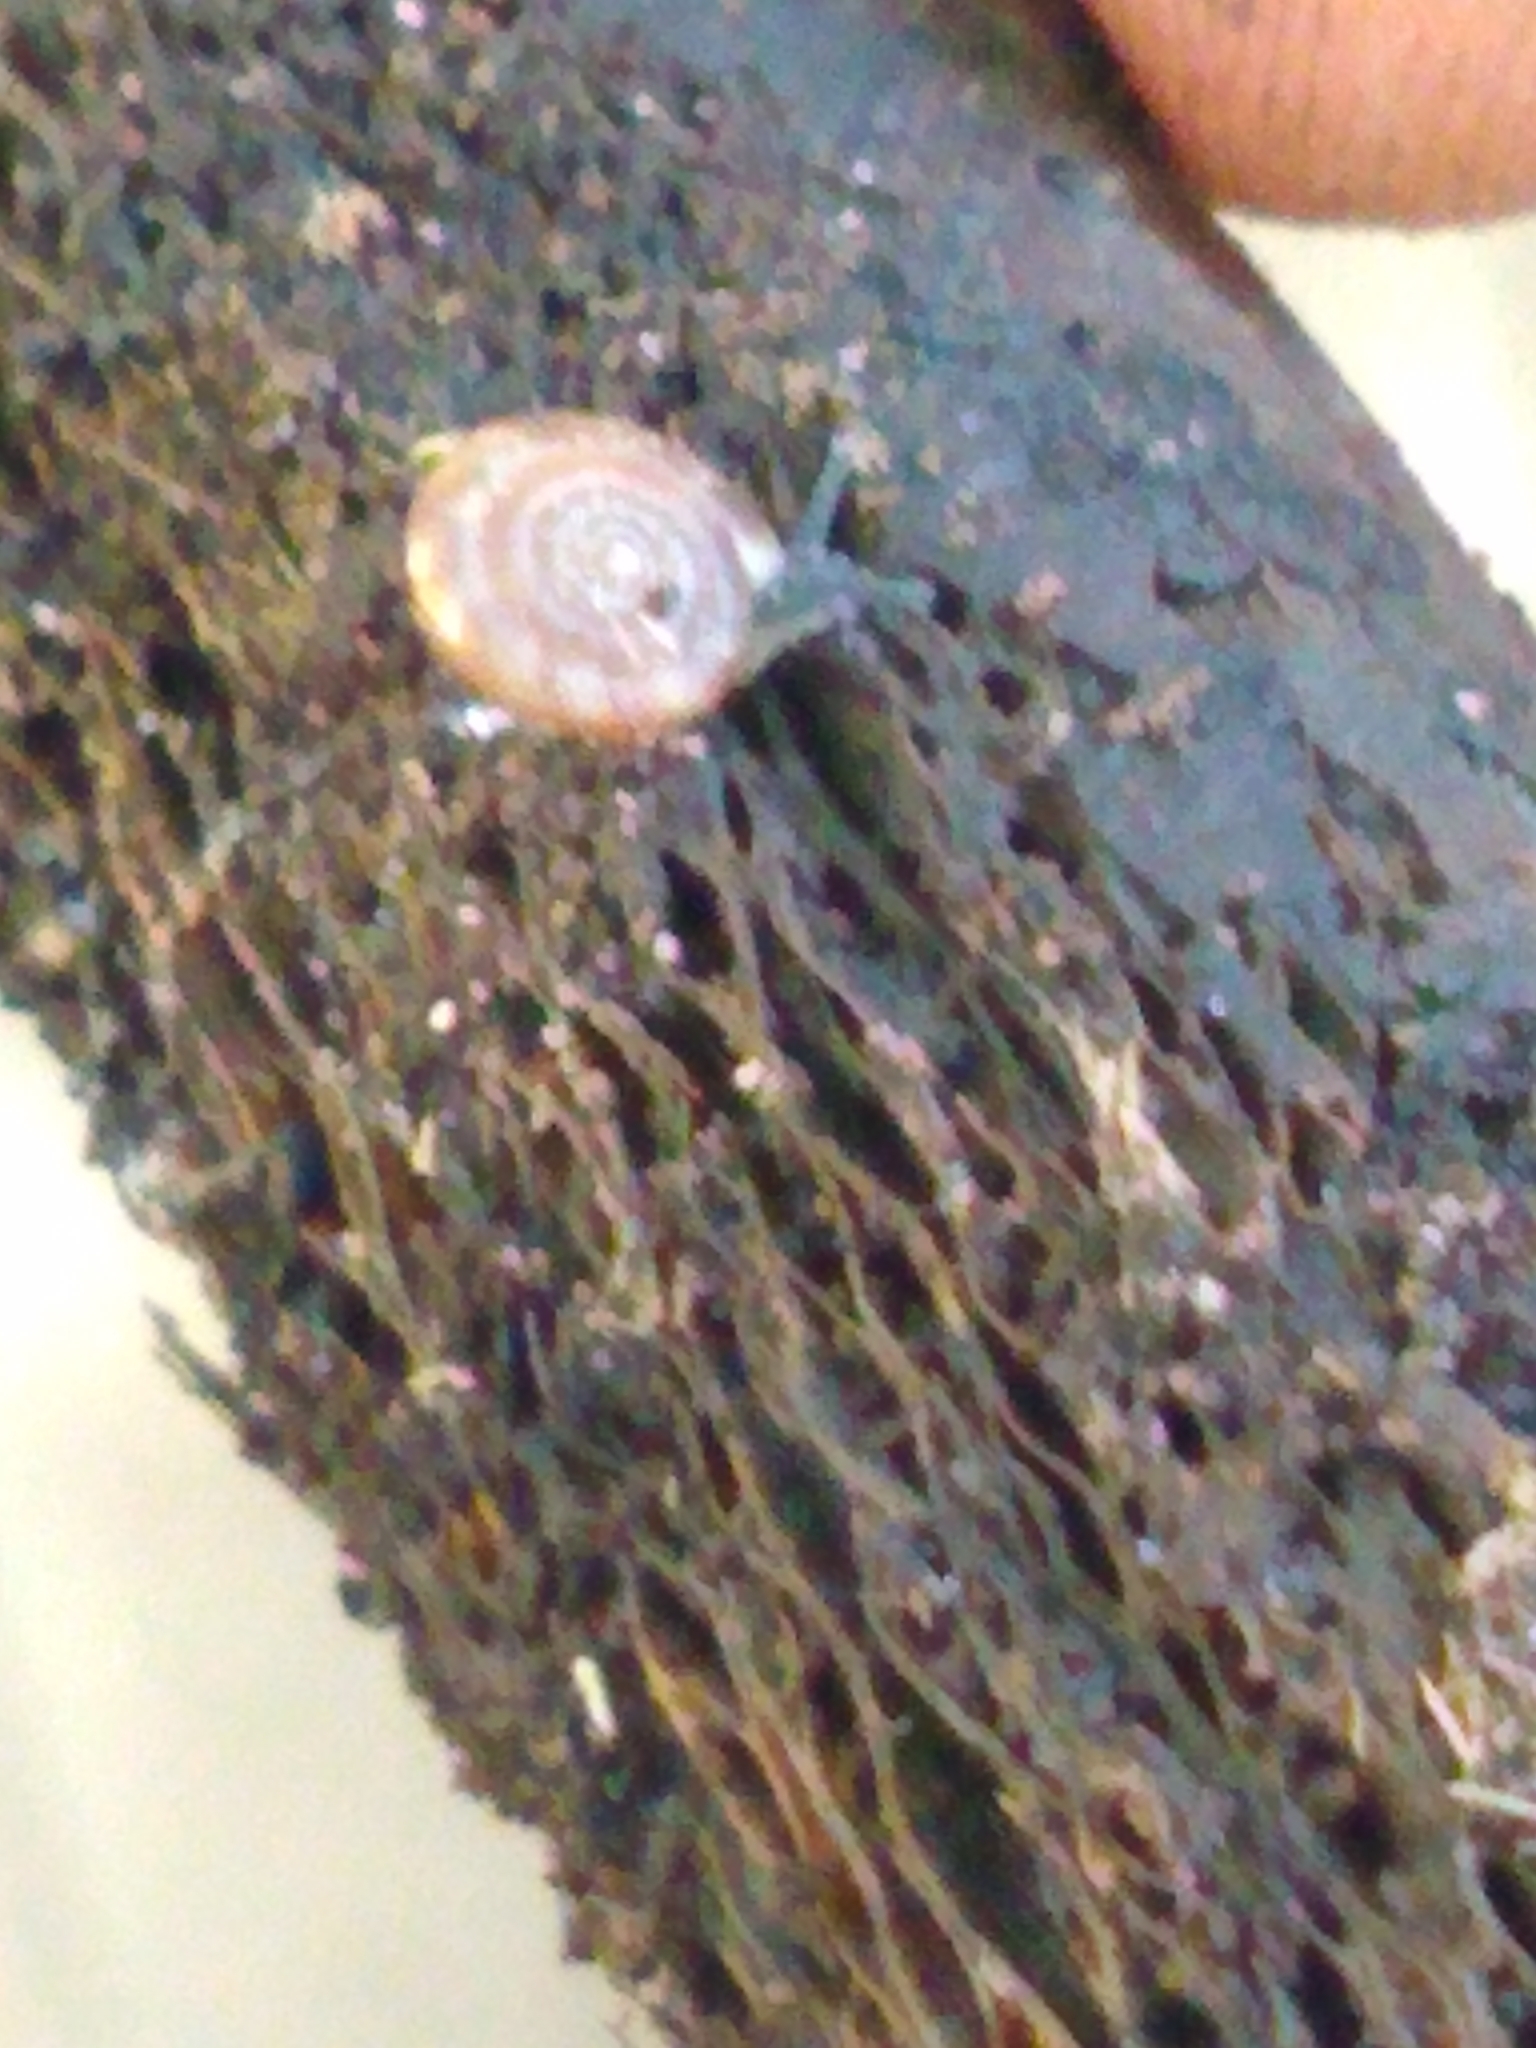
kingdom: Animalia
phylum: Mollusca
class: Gastropoda
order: Stylommatophora
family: Discidae
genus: Discus
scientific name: Discus rotundatus
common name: Rounded snail
